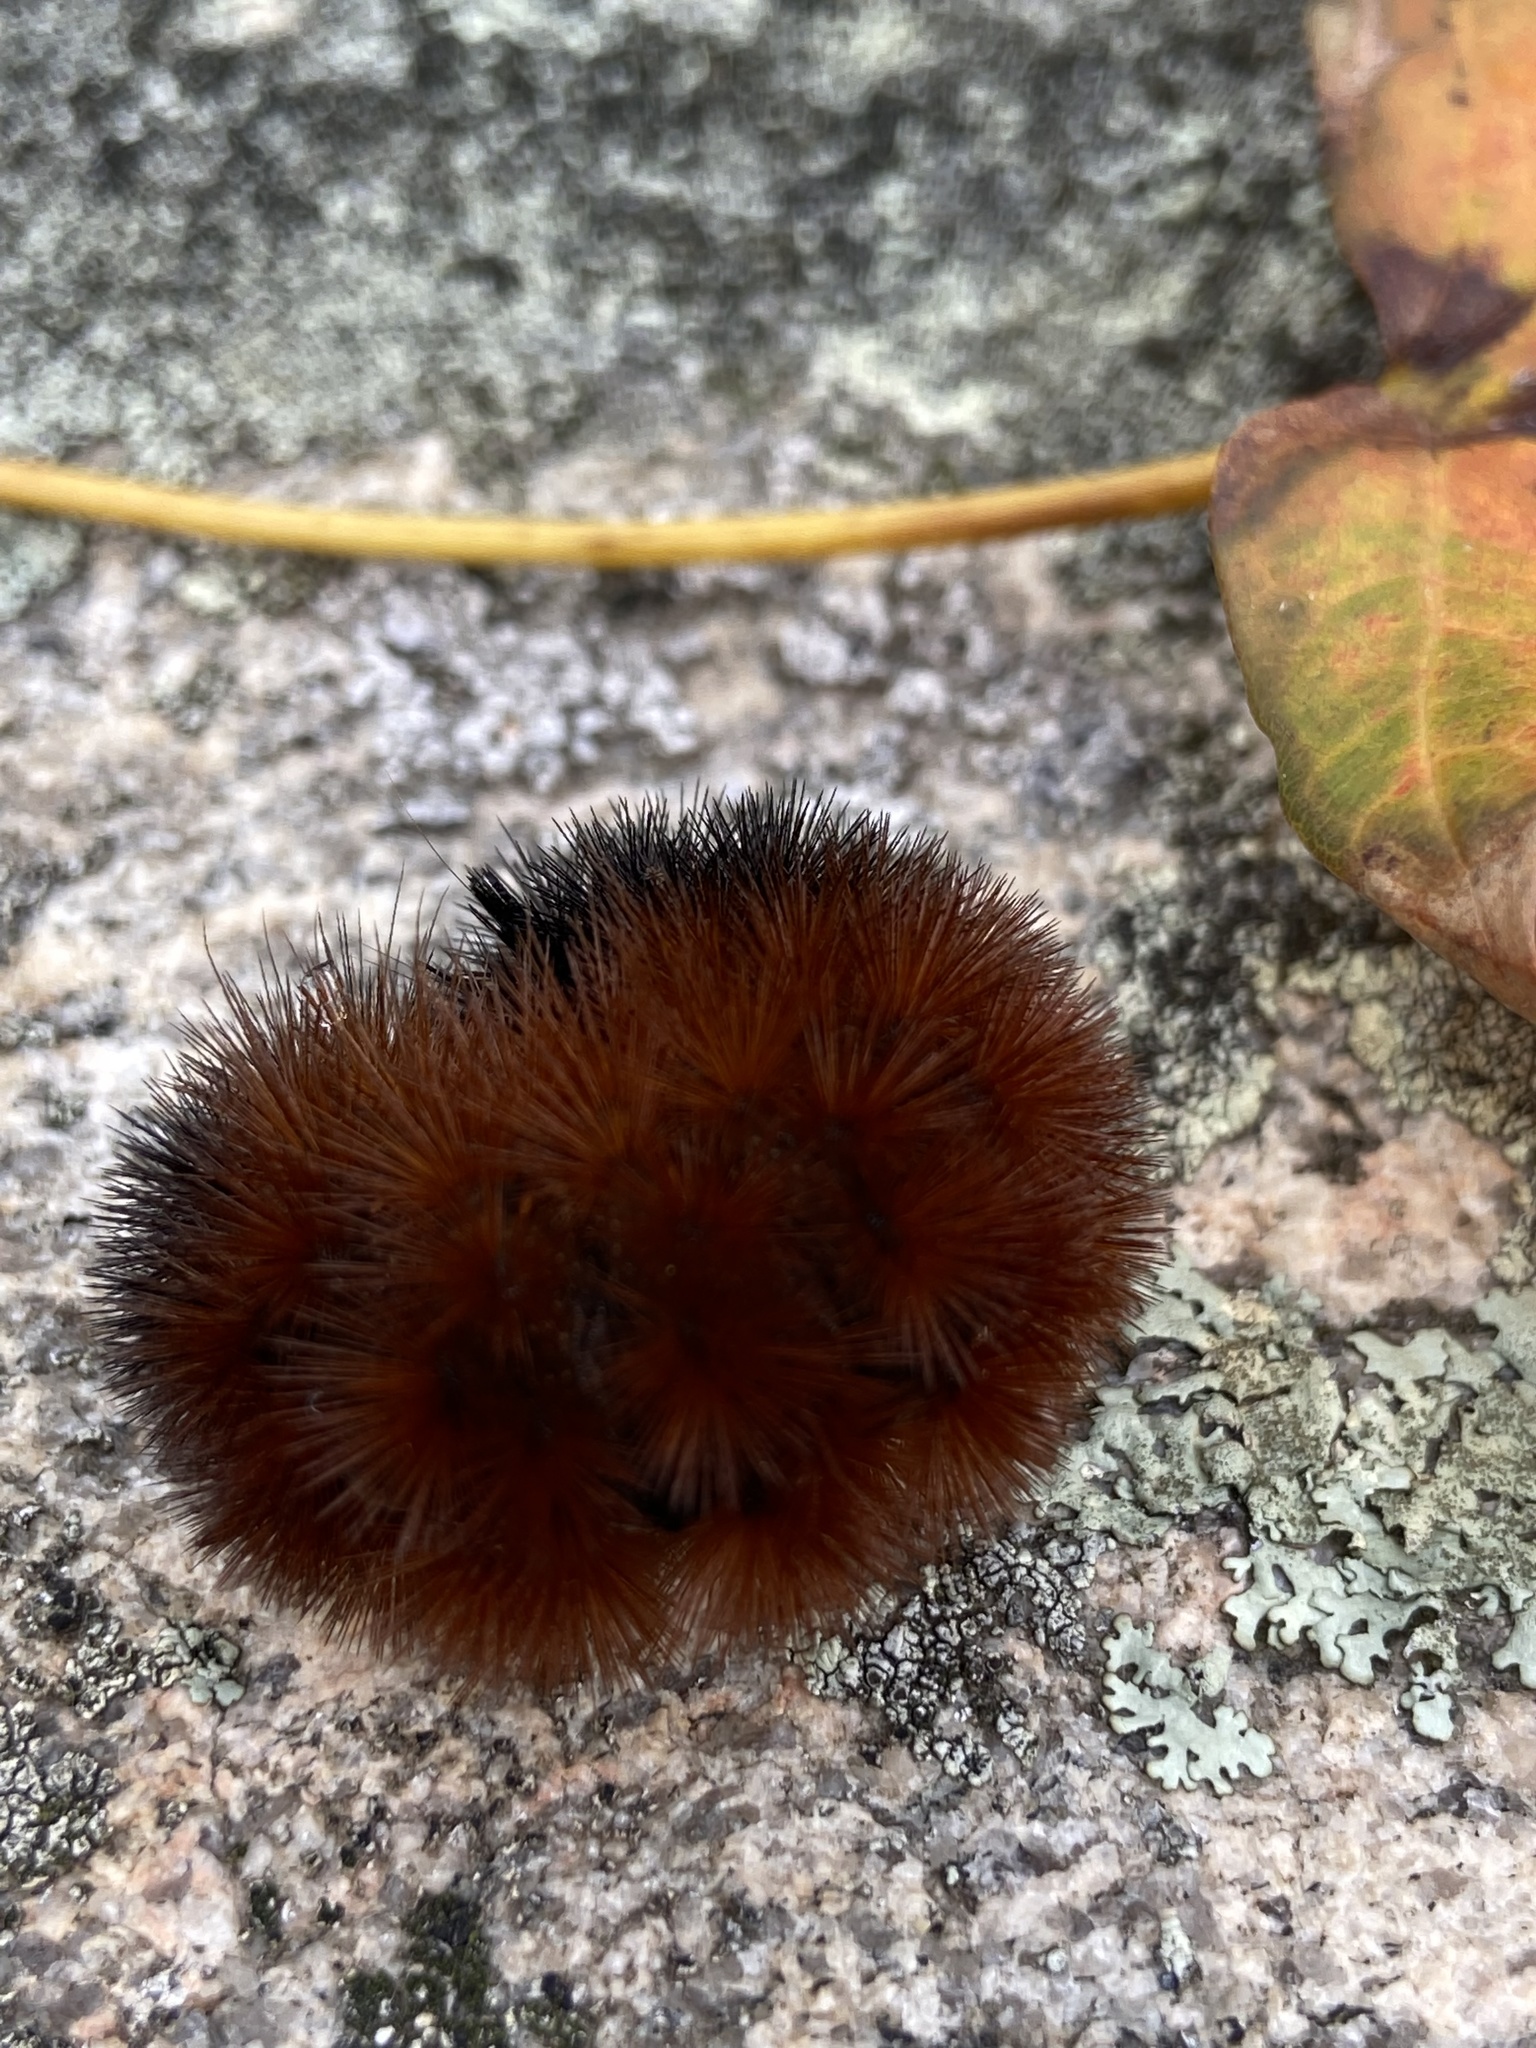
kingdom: Animalia
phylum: Arthropoda
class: Insecta
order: Lepidoptera
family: Erebidae
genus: Pyrrharctia
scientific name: Pyrrharctia isabella
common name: Isabella tiger moth
